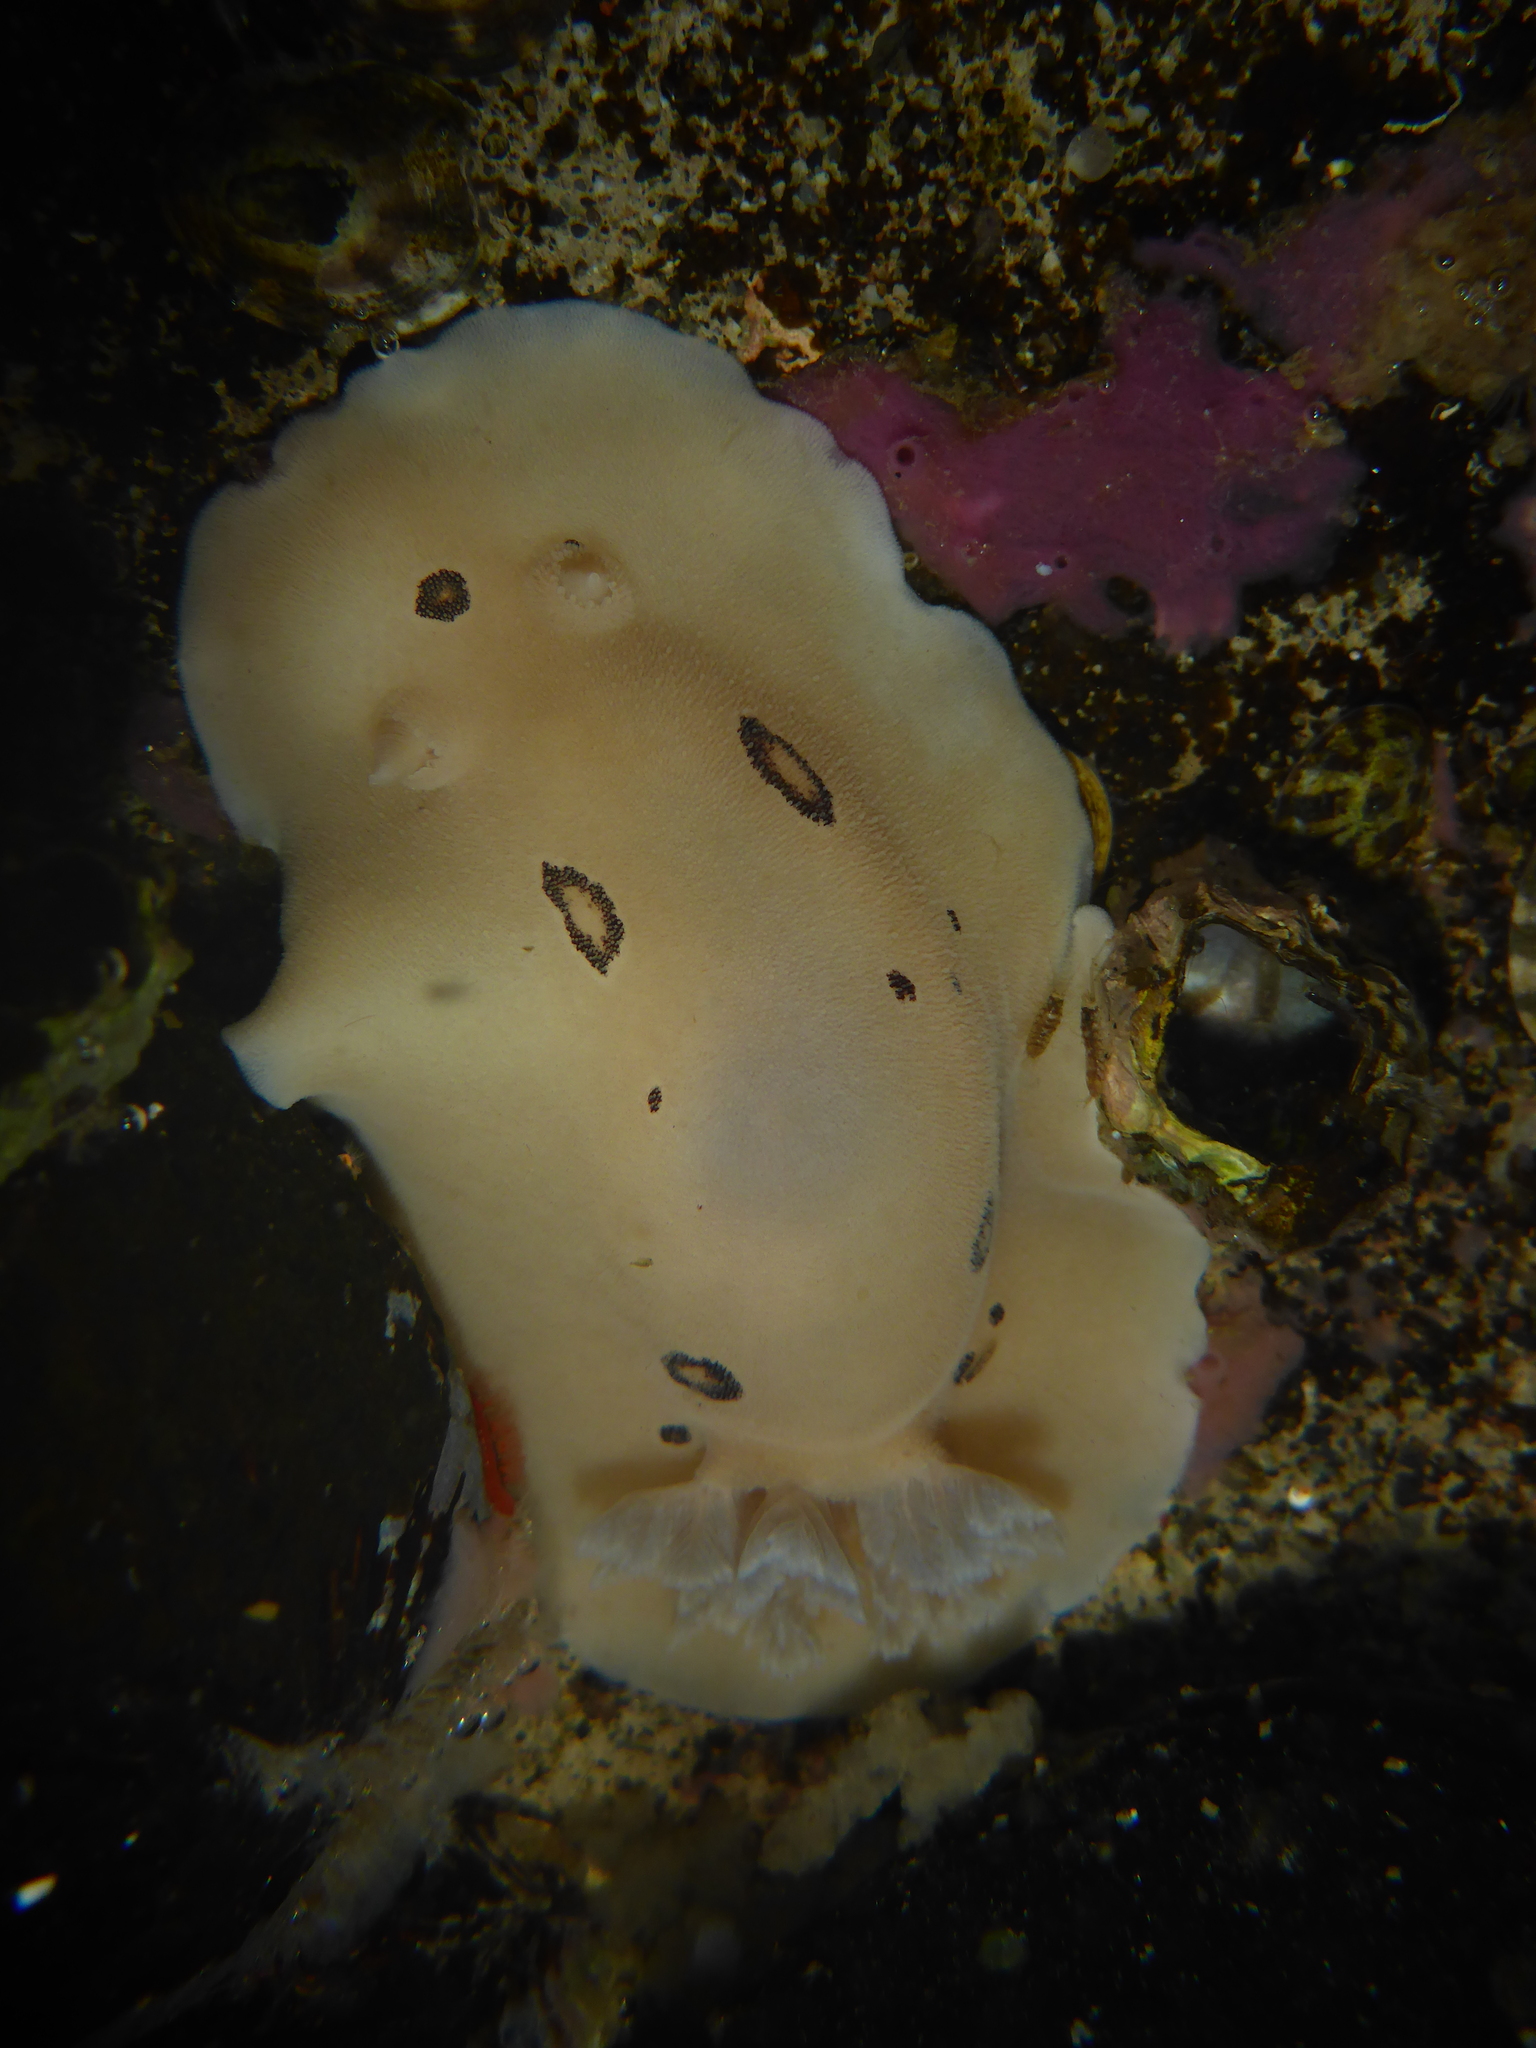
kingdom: Animalia
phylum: Mollusca
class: Gastropoda
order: Nudibranchia
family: Discodorididae
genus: Diaulula
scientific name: Diaulula sandiegensis
